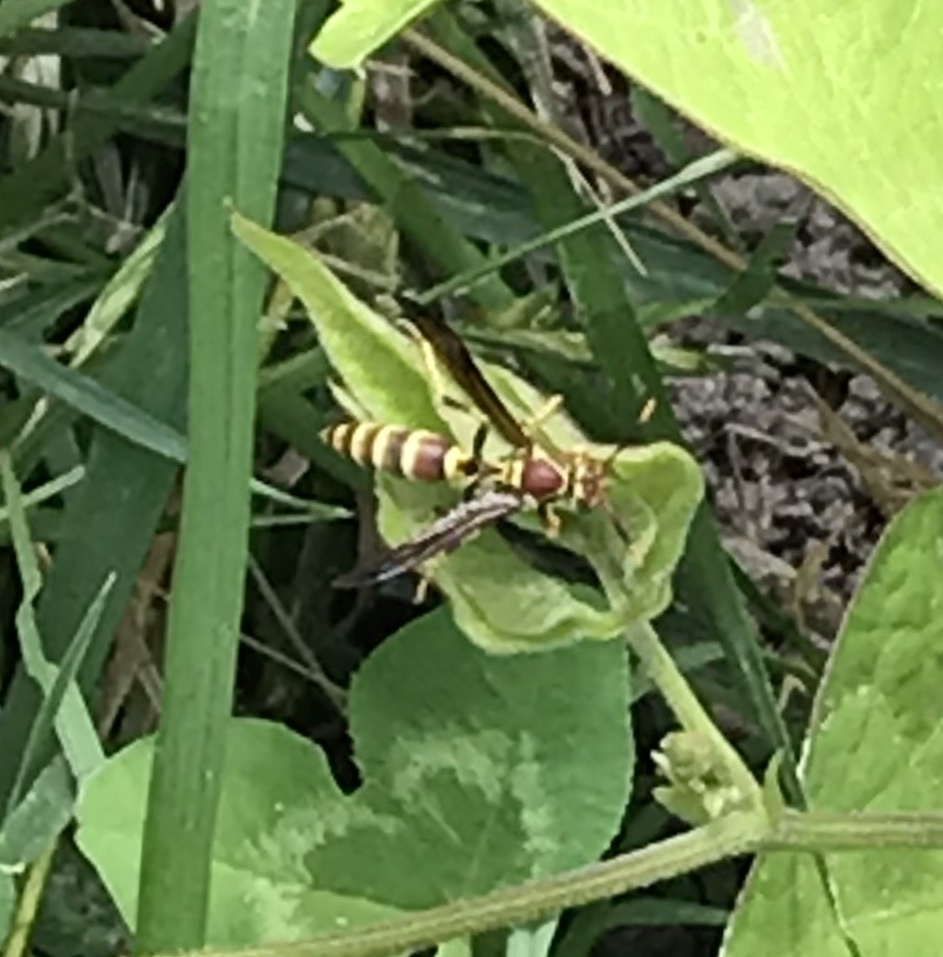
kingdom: Animalia
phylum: Arthropoda
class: Insecta
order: Hymenoptera
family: Eumenidae
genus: Polistes
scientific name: Polistes exclamans
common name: Paper wasp
